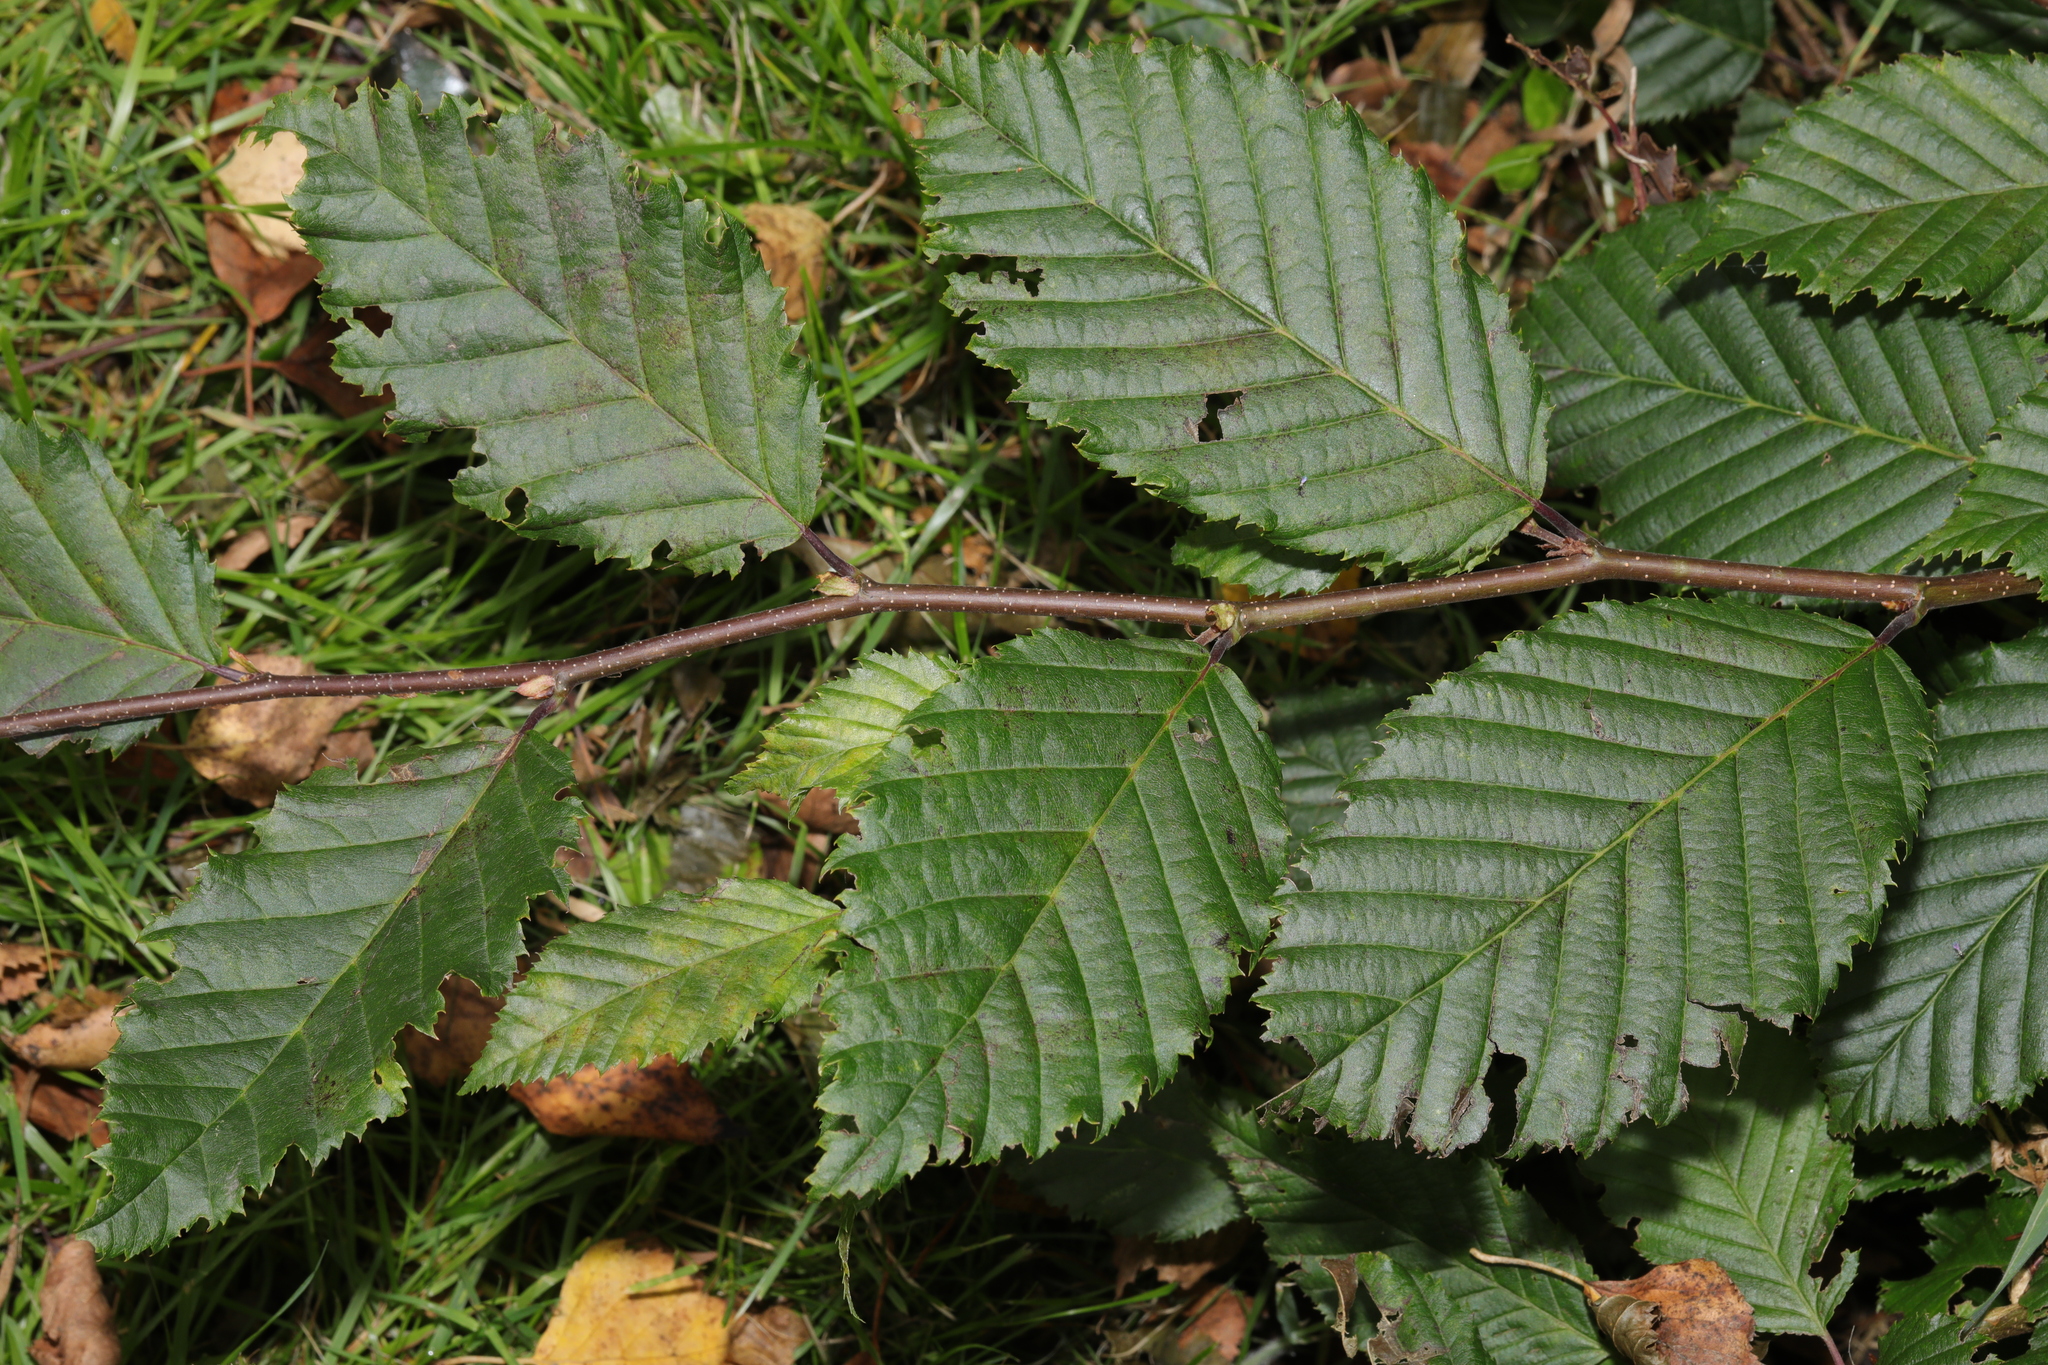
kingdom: Plantae
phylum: Tracheophyta
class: Magnoliopsida
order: Fagales
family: Betulaceae
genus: Carpinus
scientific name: Carpinus betulus
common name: Hornbeam
